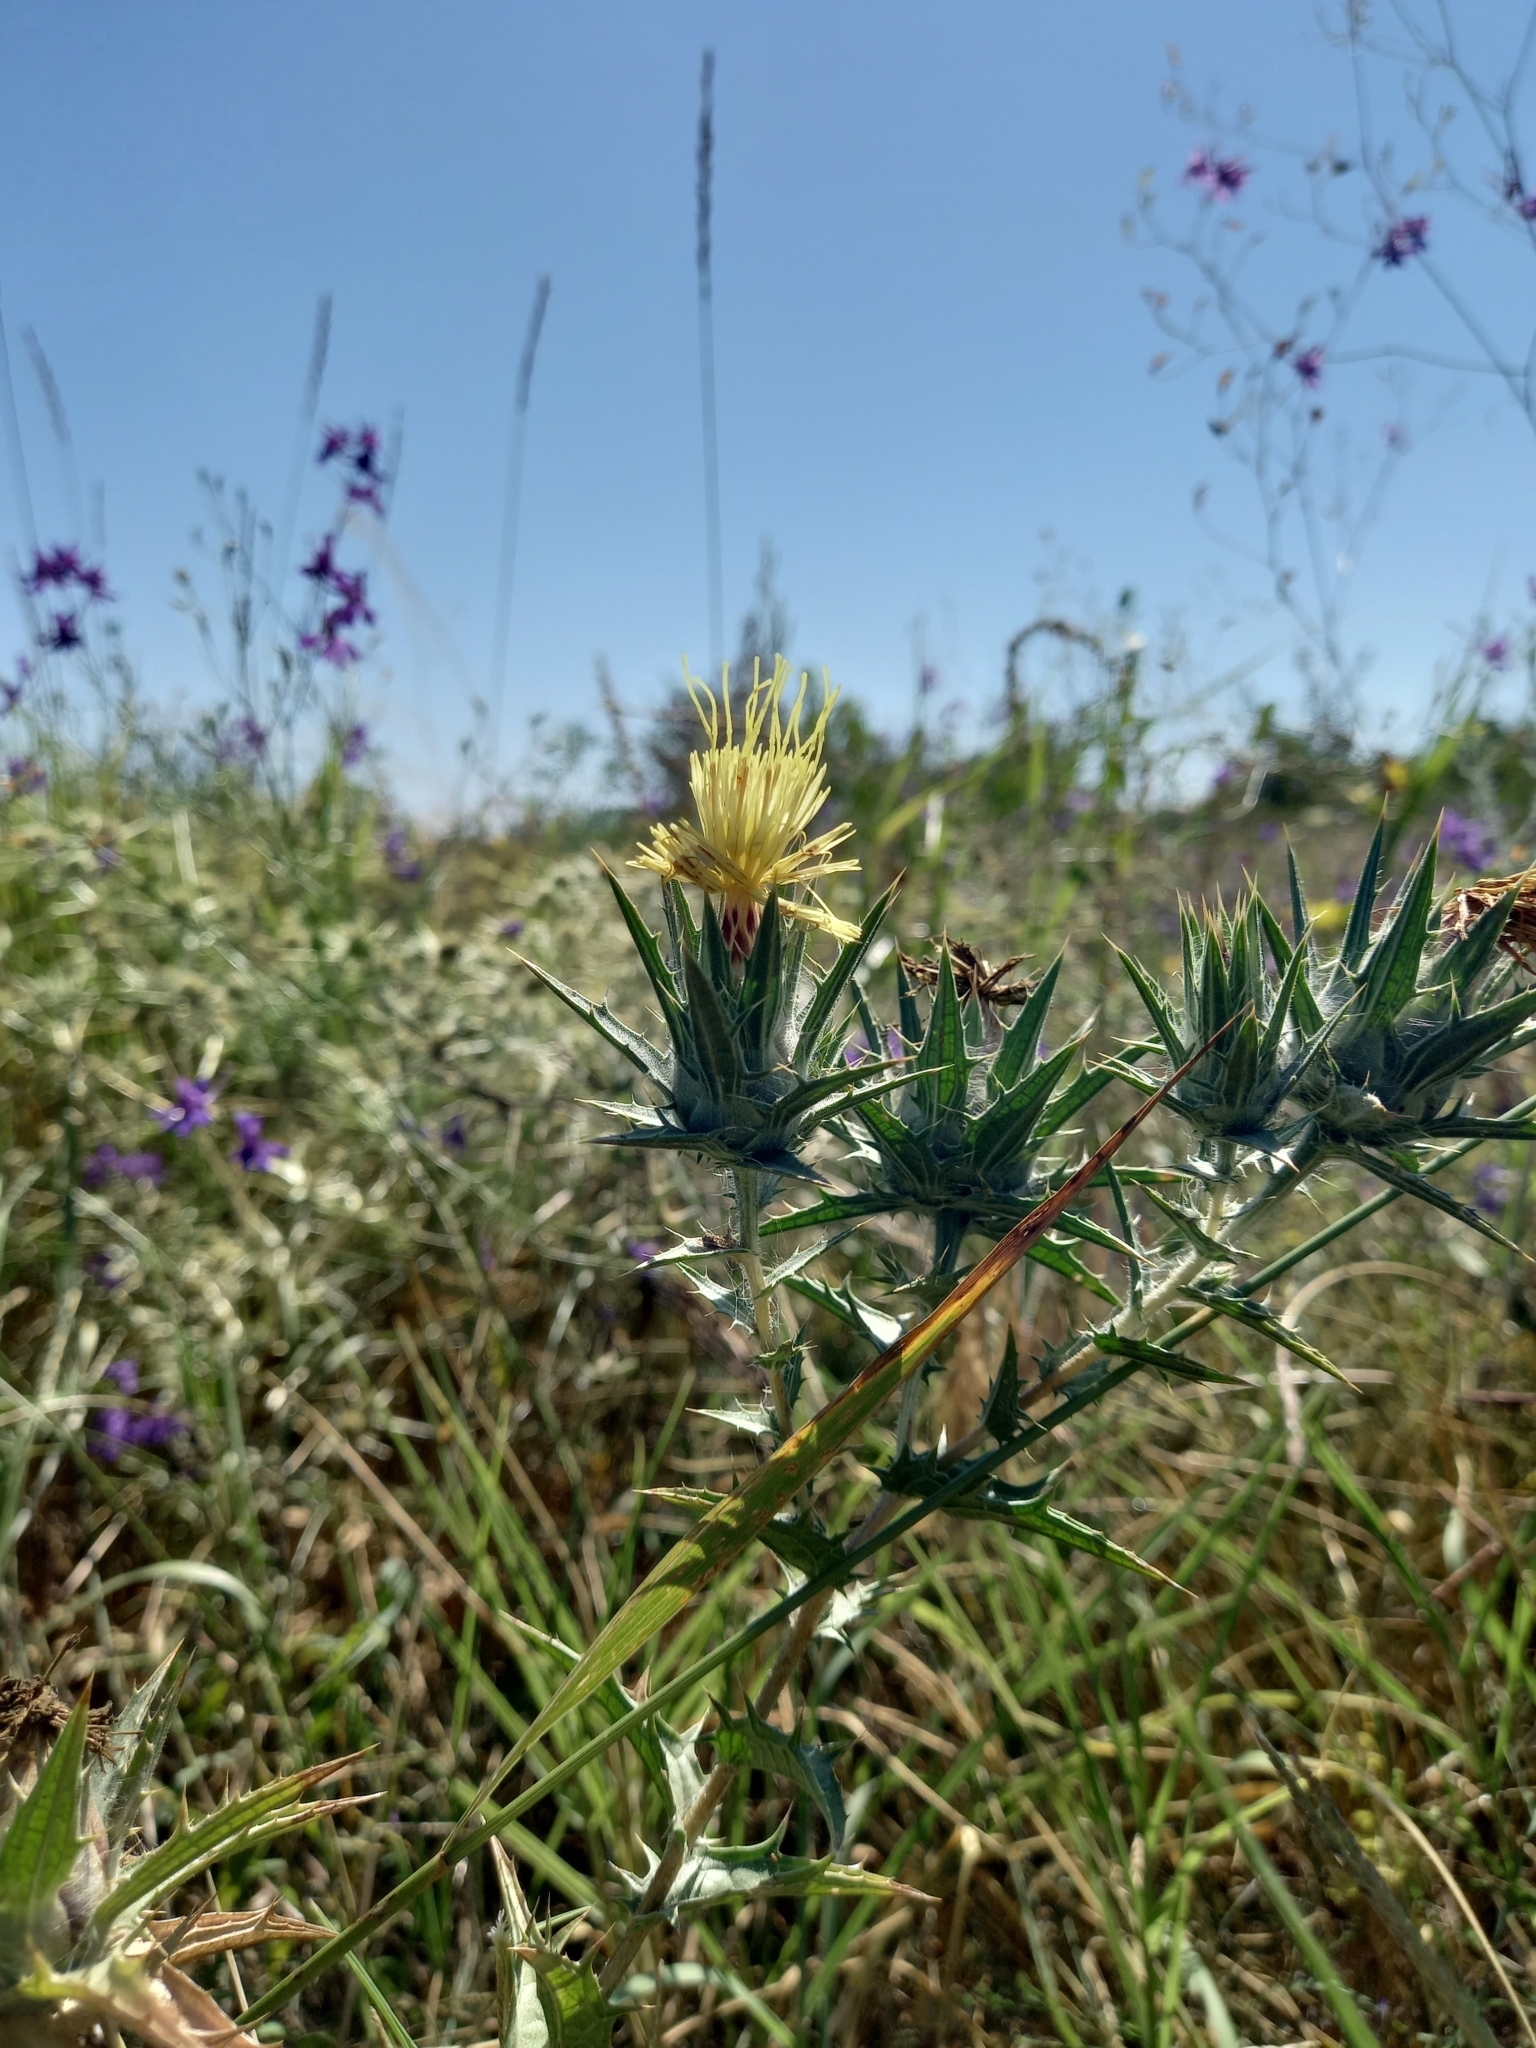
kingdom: Plantae
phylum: Tracheophyta
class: Magnoliopsida
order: Asterales
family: Asteraceae
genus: Carthamus
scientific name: Carthamus lanatus
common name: Downy safflower
